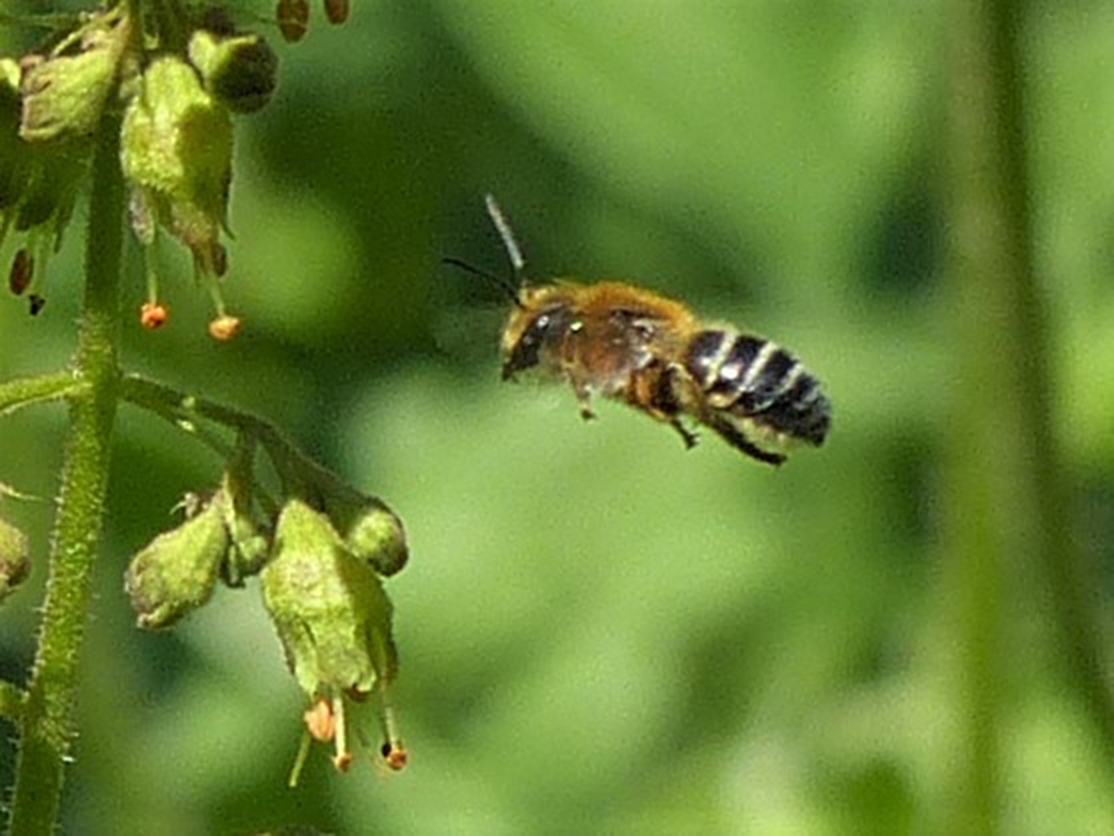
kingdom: Animalia
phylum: Arthropoda
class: Insecta
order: Hymenoptera
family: Colletidae
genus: Colletes
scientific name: Colletes aestivalis
